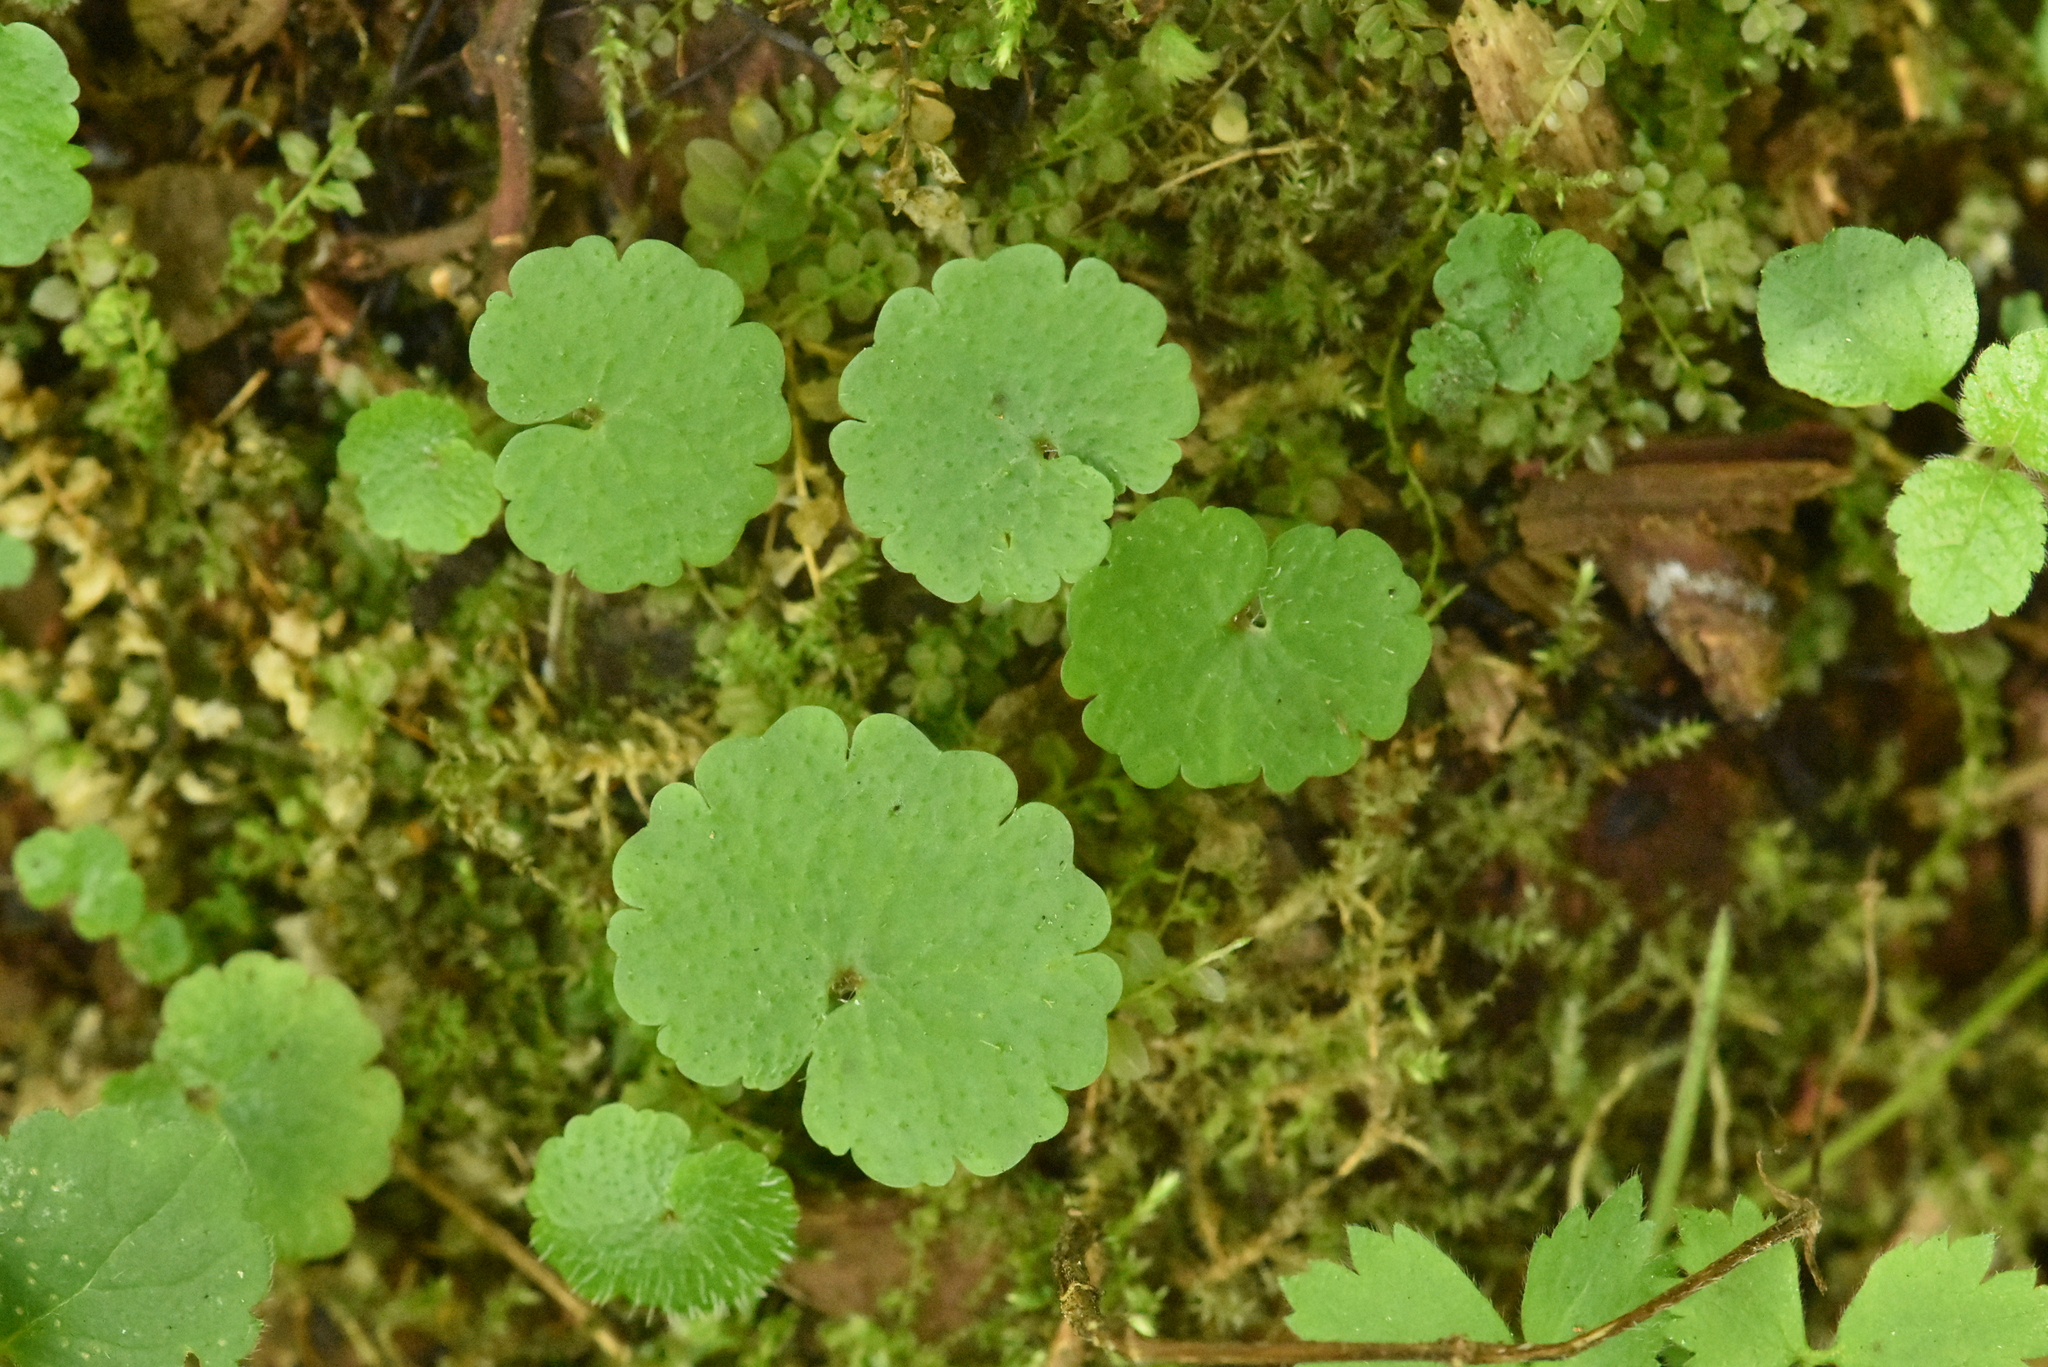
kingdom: Plantae
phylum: Tracheophyta
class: Magnoliopsida
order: Lamiales
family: Lamiaceae
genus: Glechoma
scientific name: Glechoma hederacea
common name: Ground ivy
